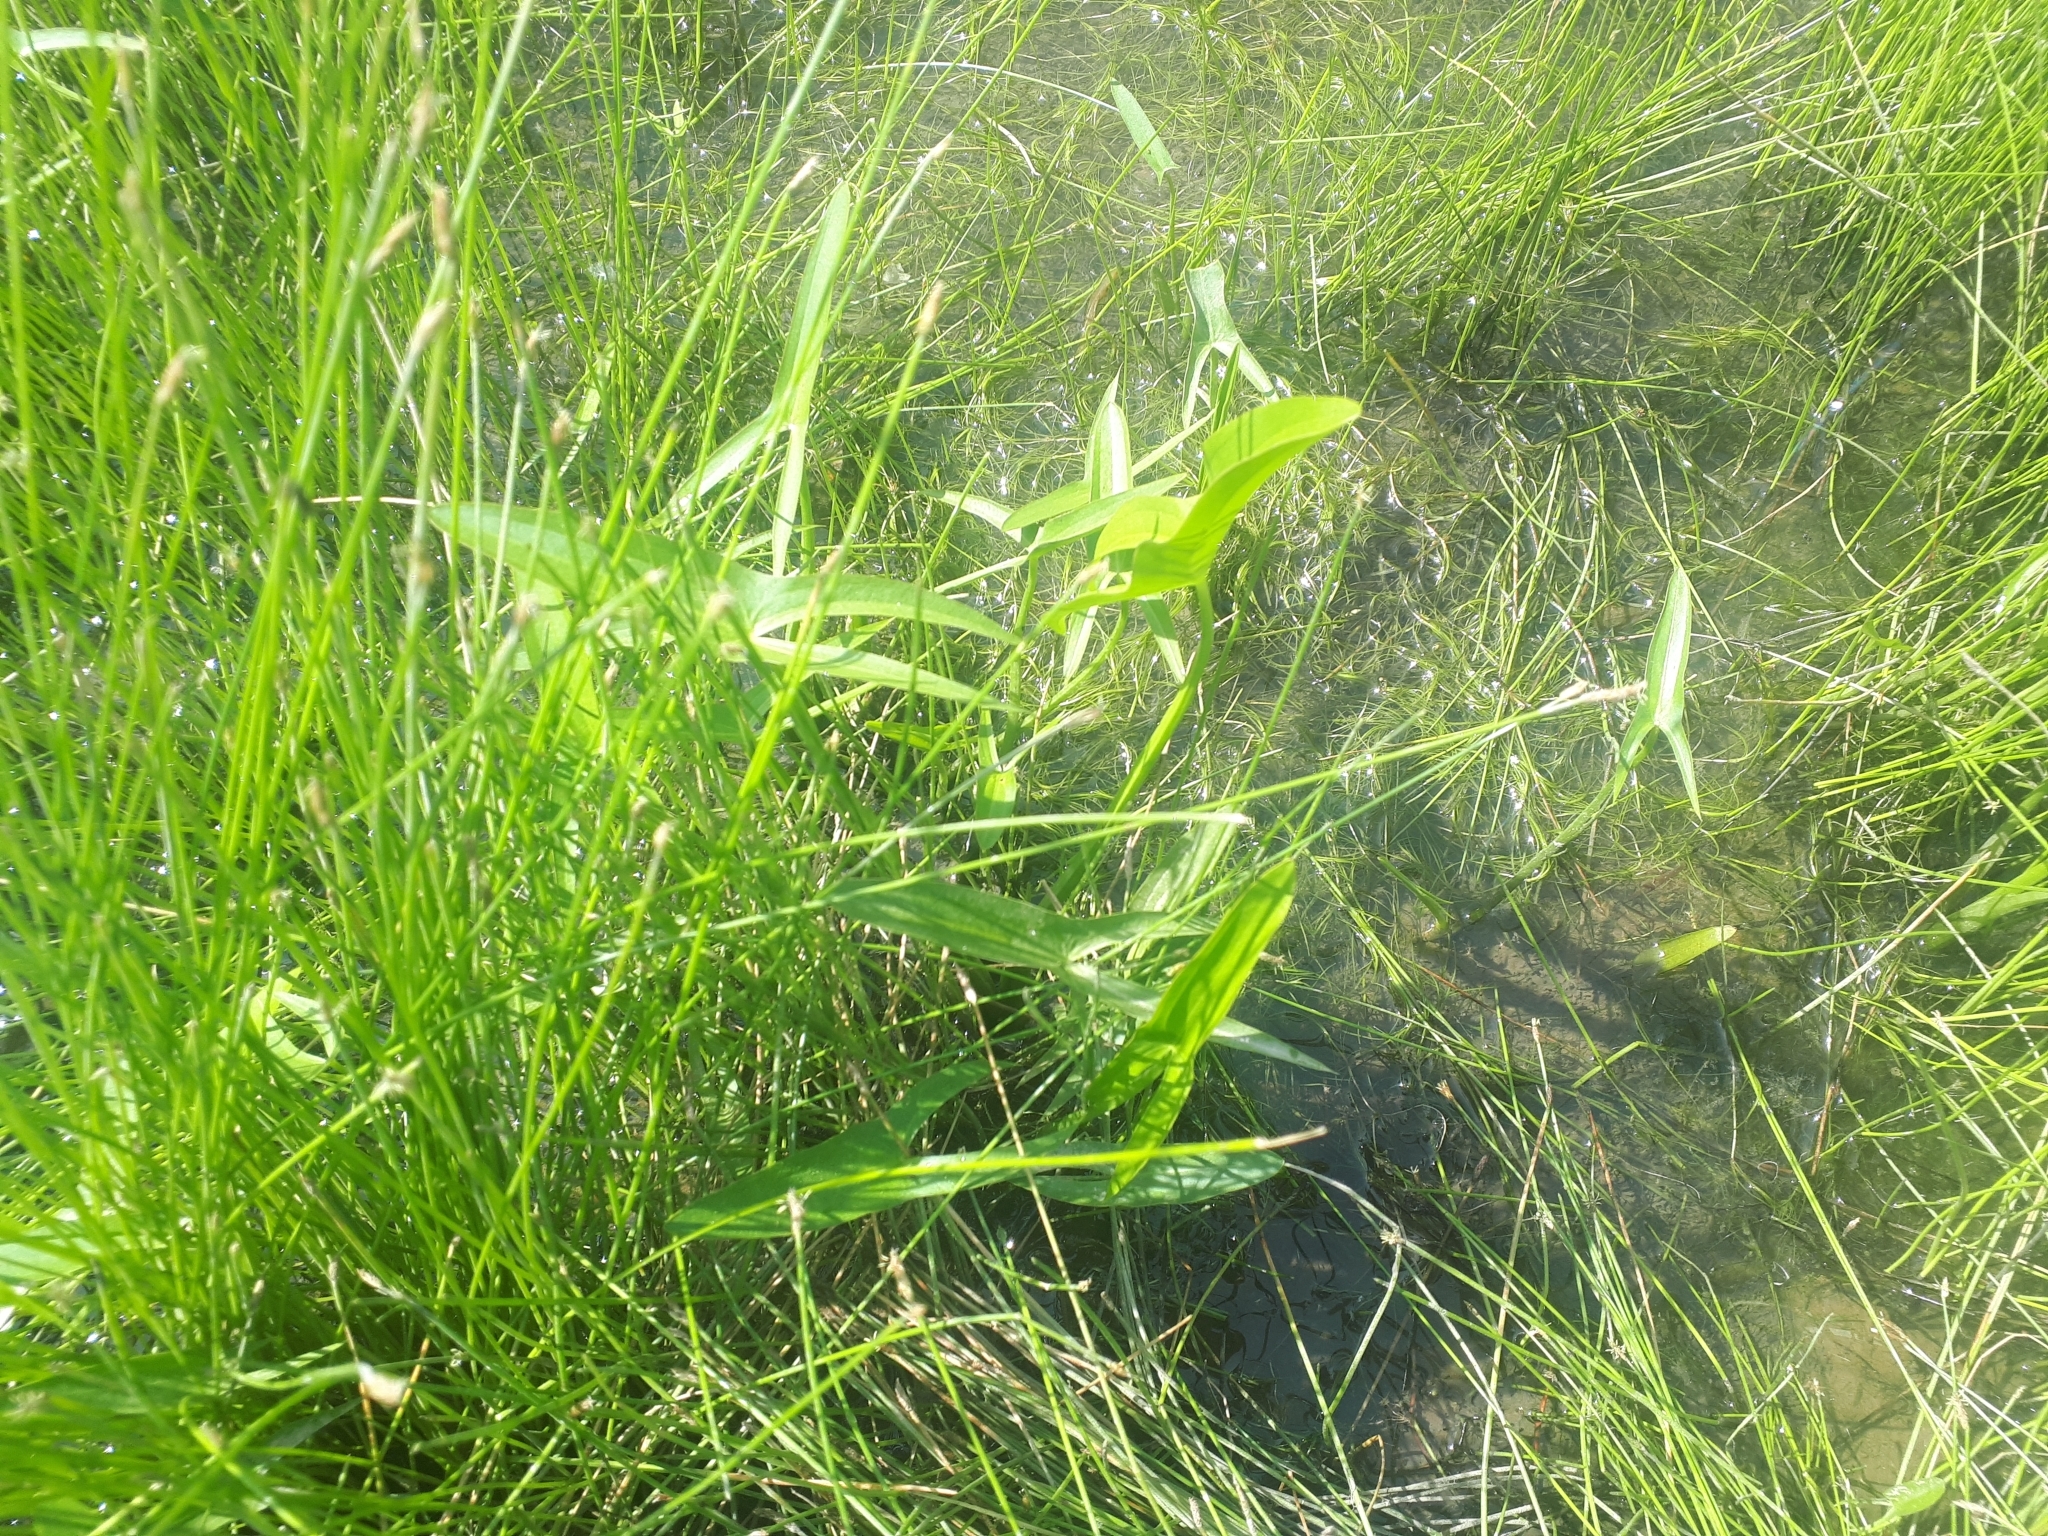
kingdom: Plantae
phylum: Tracheophyta
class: Liliopsida
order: Alismatales
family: Alismataceae
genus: Sagittaria
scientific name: Sagittaria latifolia
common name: Duck-potato
